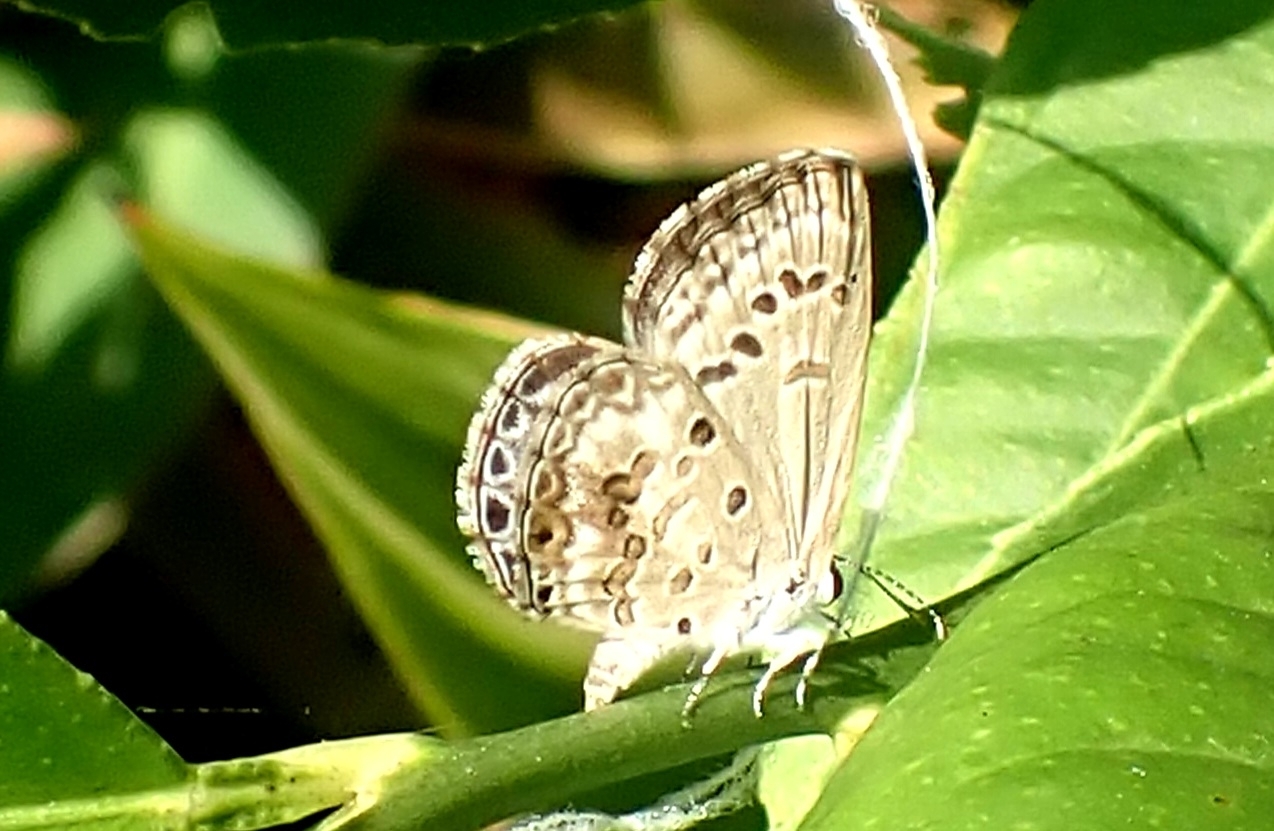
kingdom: Animalia
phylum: Arthropoda
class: Insecta
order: Lepidoptera
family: Lycaenidae
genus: Chilades
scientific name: Chilades laius
